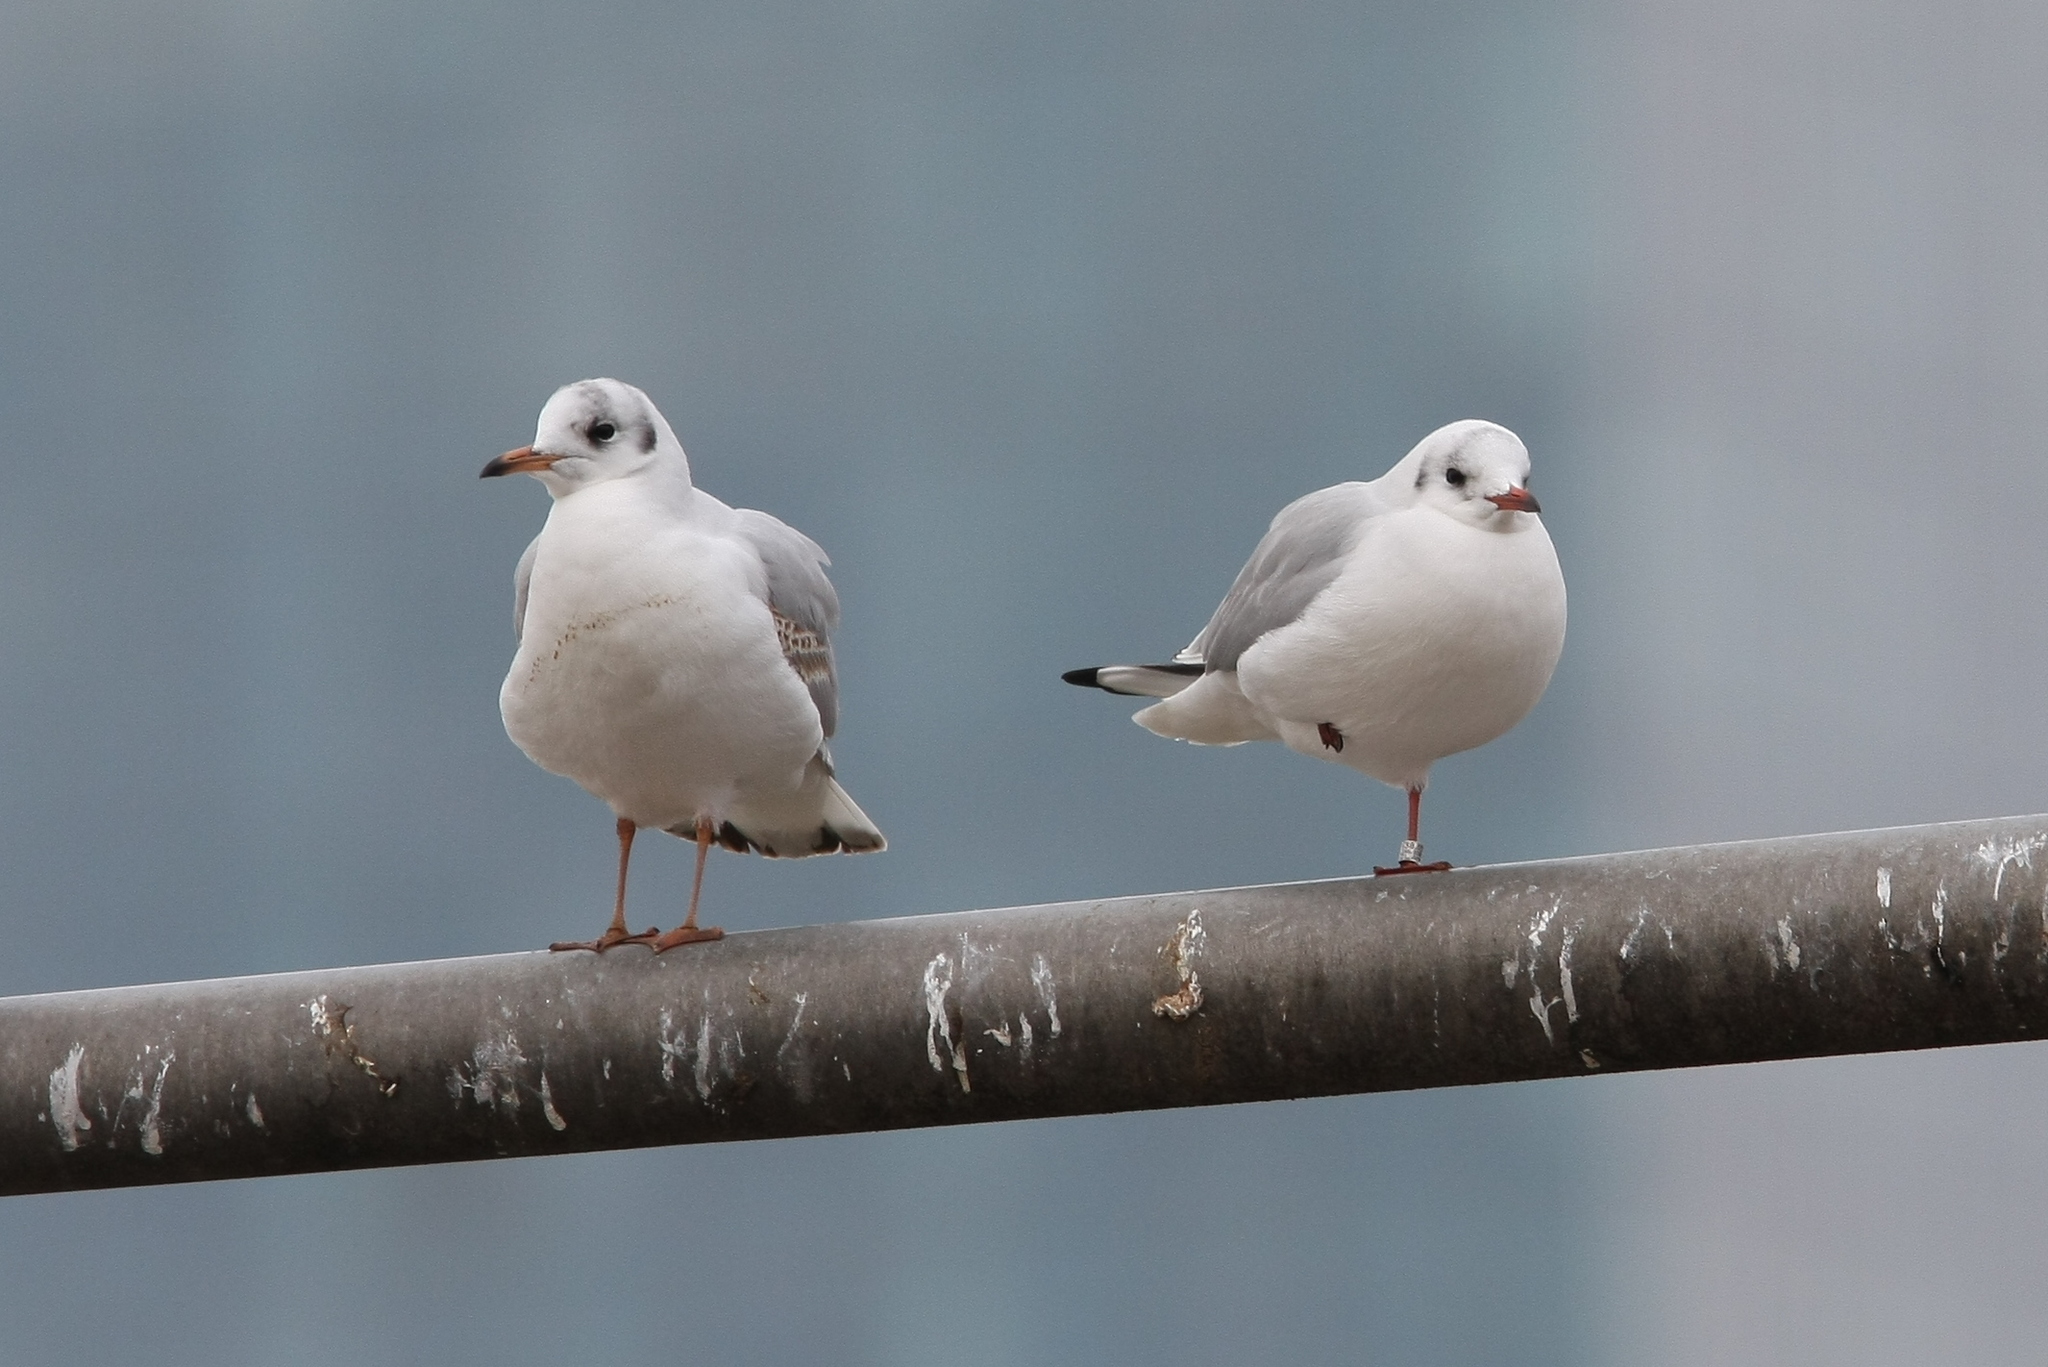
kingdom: Animalia
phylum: Chordata
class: Aves
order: Charadriiformes
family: Laridae
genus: Chroicocephalus
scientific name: Chroicocephalus ridibundus
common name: Black-headed gull
